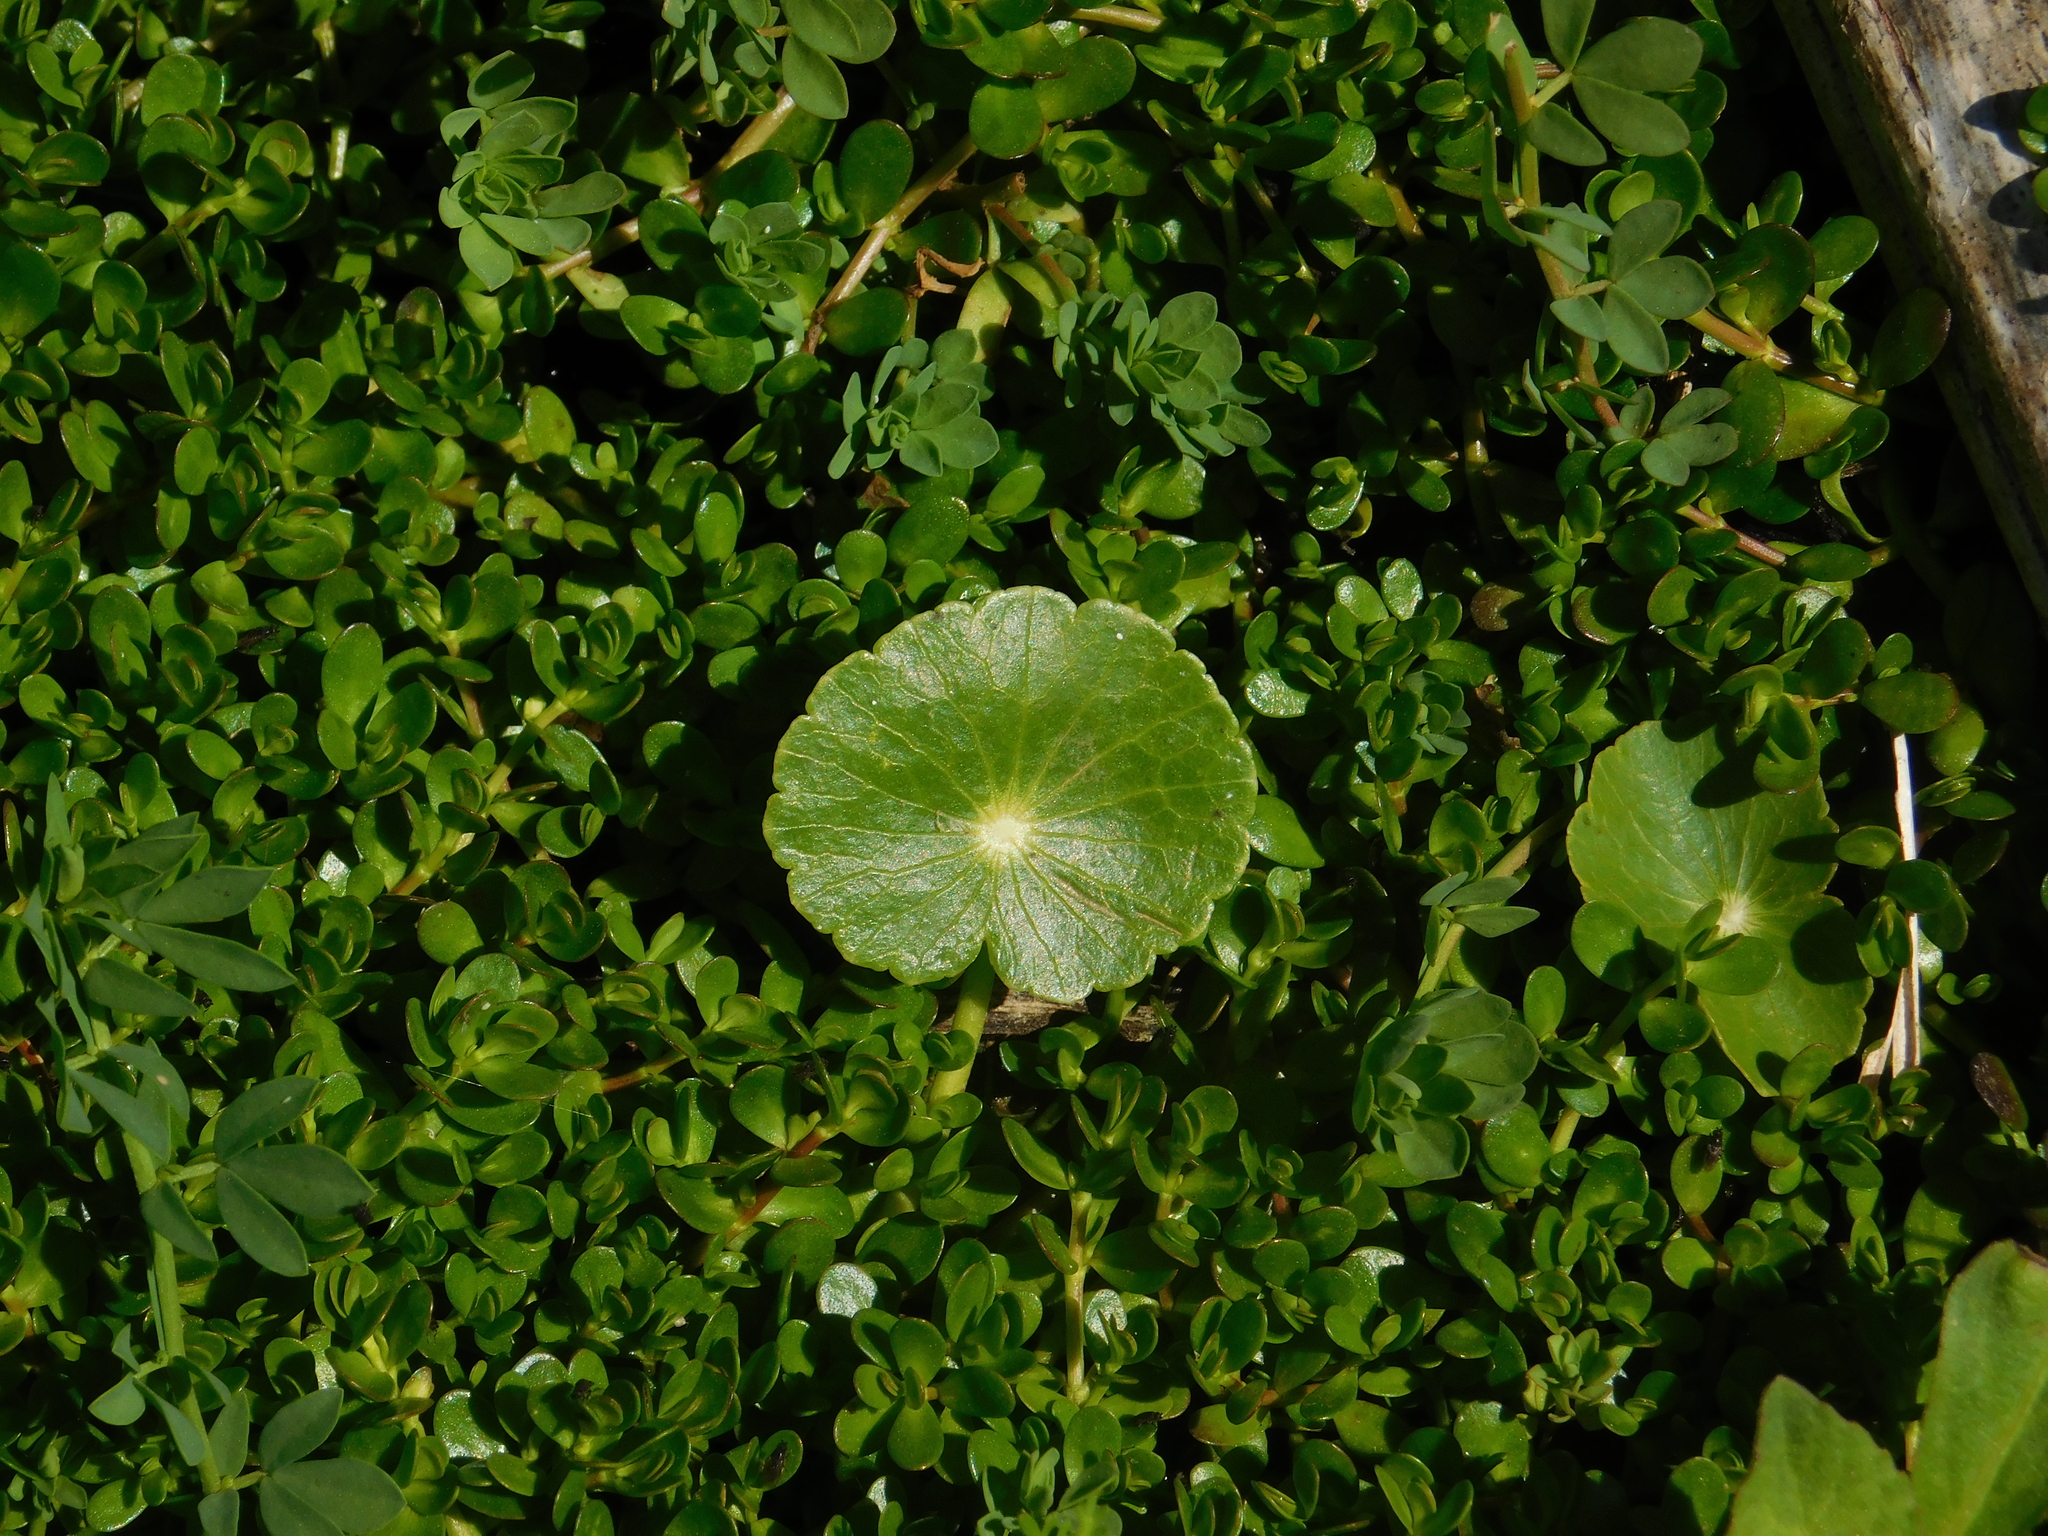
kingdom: Plantae
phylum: Tracheophyta
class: Magnoliopsida
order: Apiales
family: Araliaceae
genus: Hydrocotyle
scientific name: Hydrocotyle bonariensis
